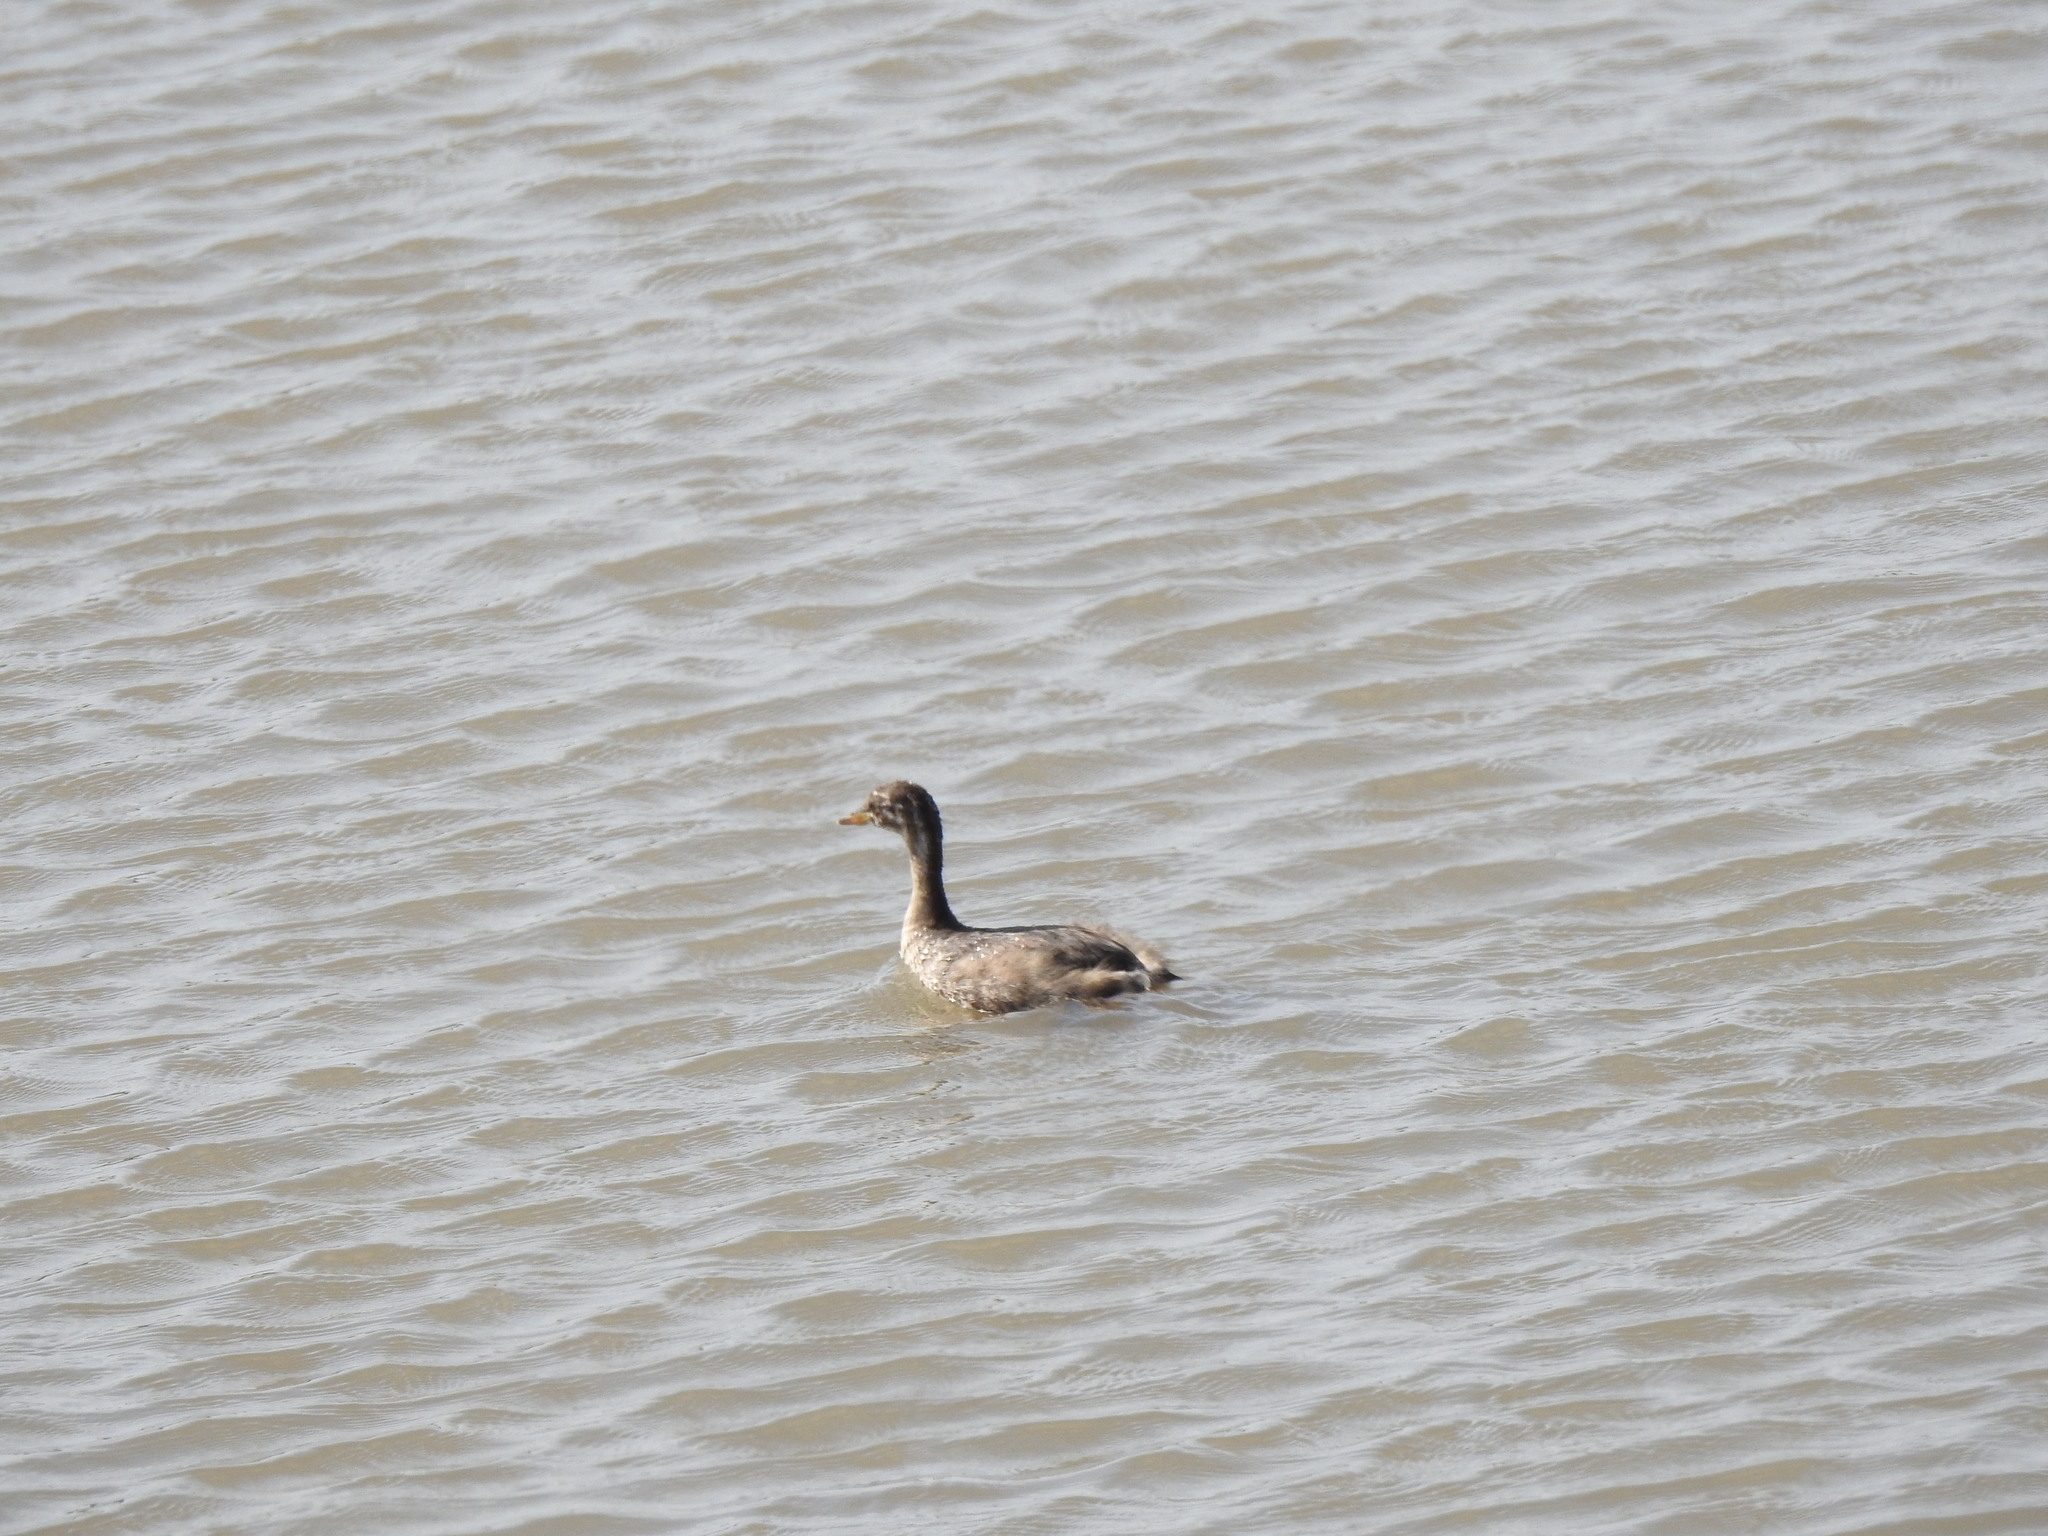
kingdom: Animalia
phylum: Chordata
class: Aves
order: Podicipediformes
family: Podicipedidae
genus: Tachybaptus
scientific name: Tachybaptus ruficollis
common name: Little grebe
